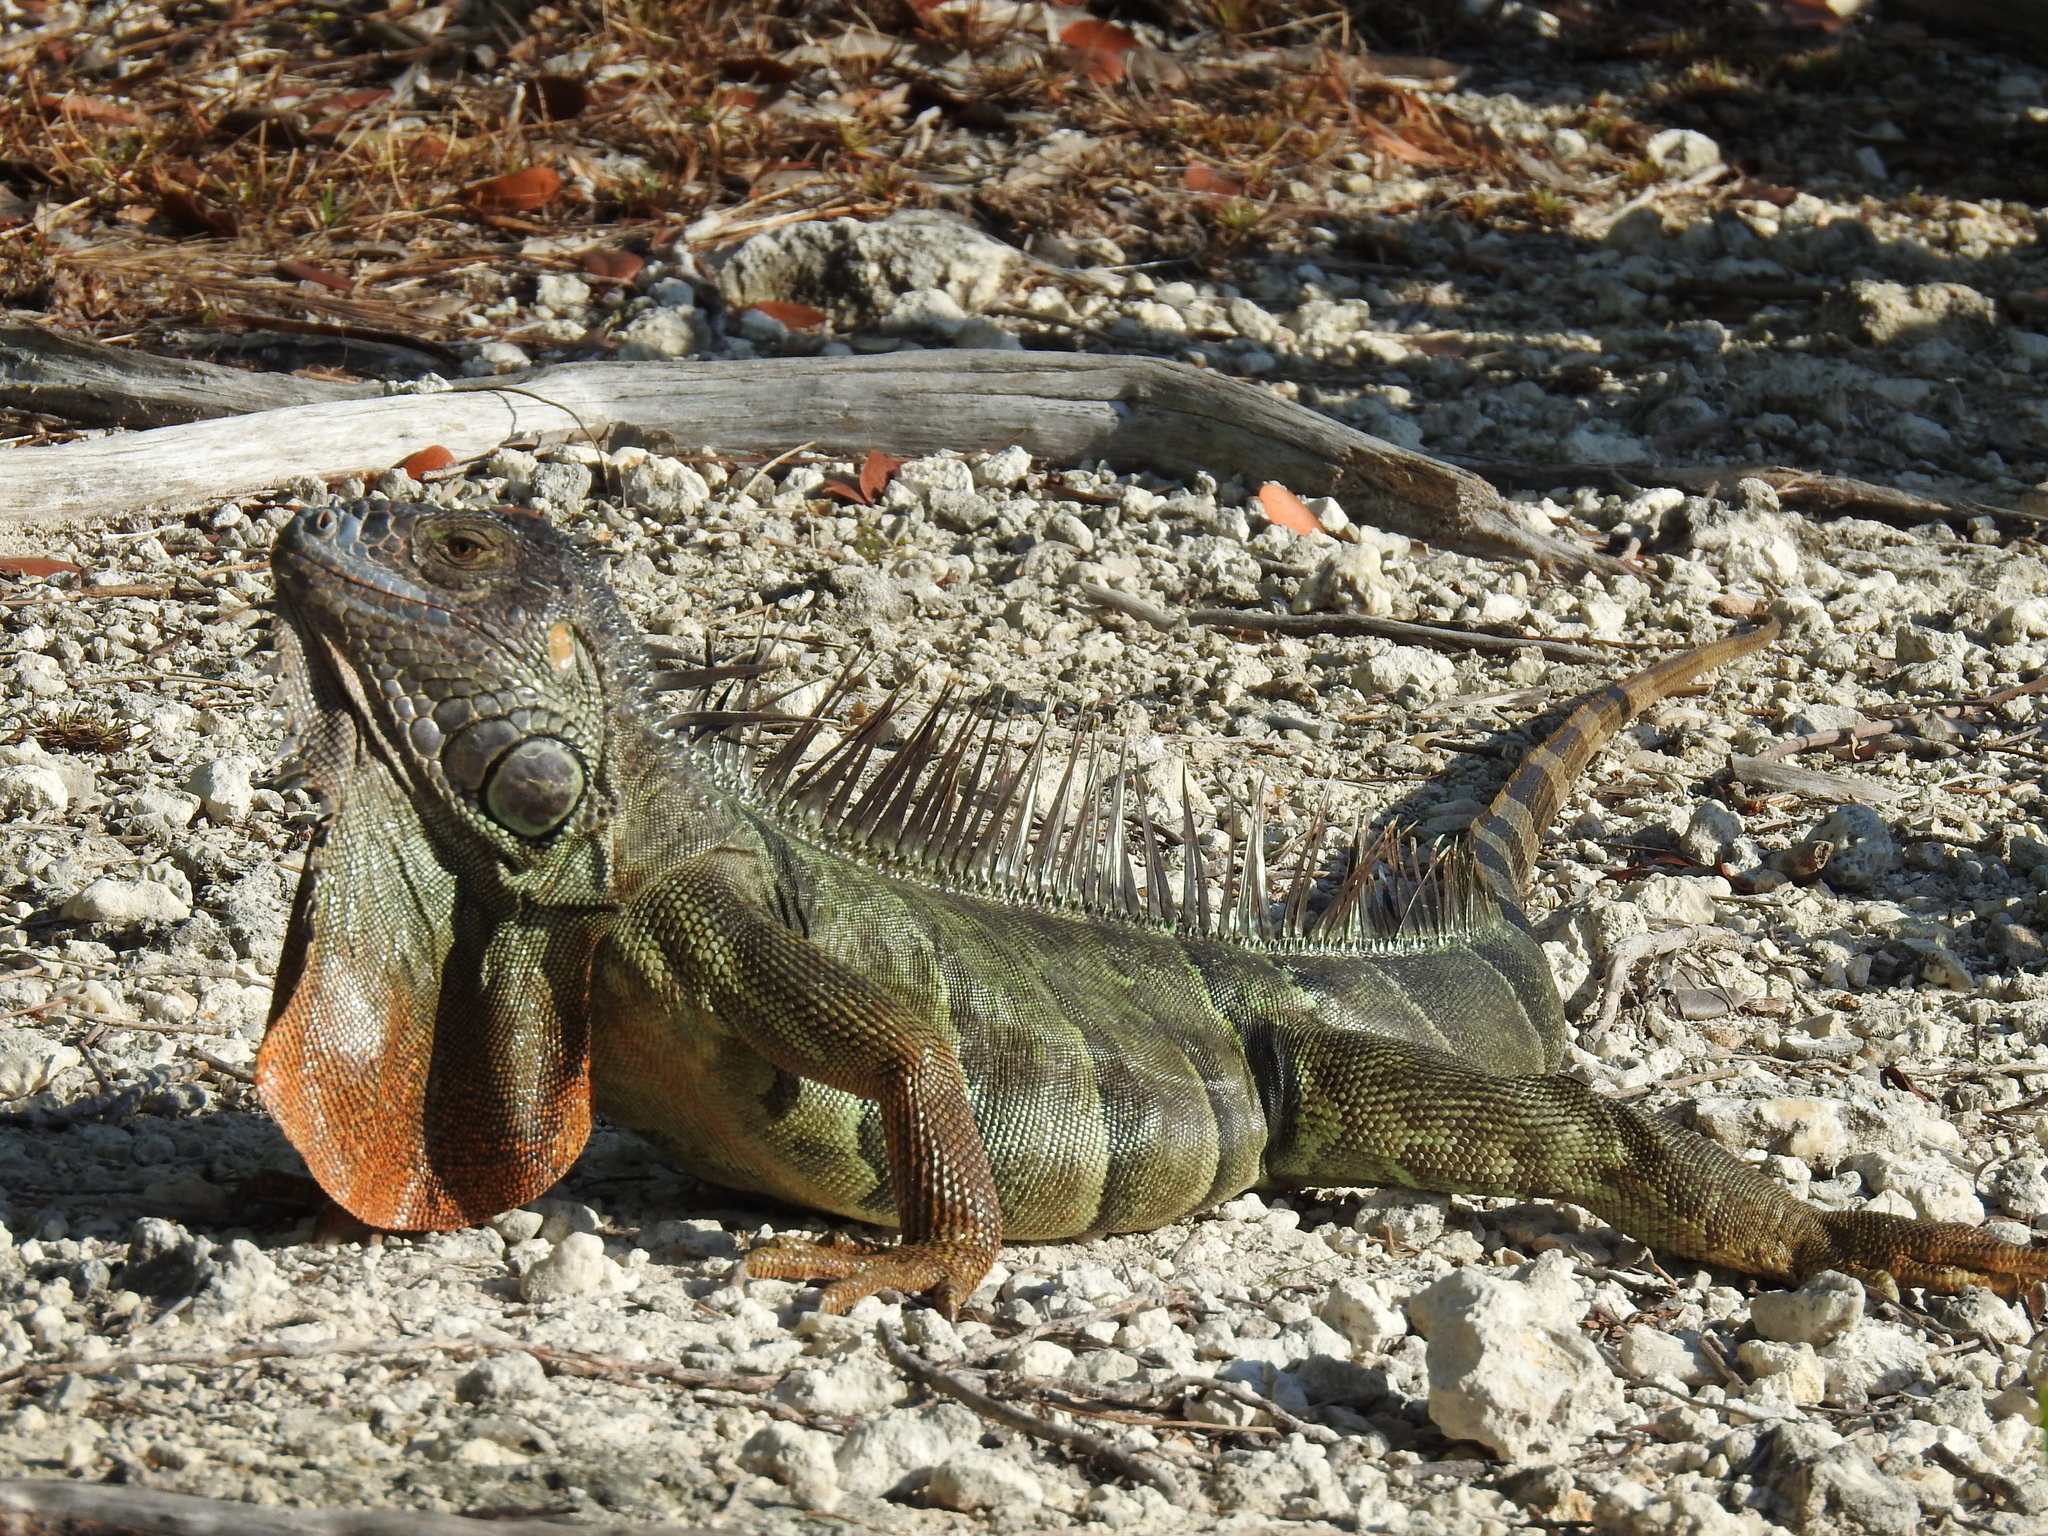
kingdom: Animalia
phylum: Chordata
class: Squamata
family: Iguanidae
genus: Iguana
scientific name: Iguana iguana
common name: Green iguana
